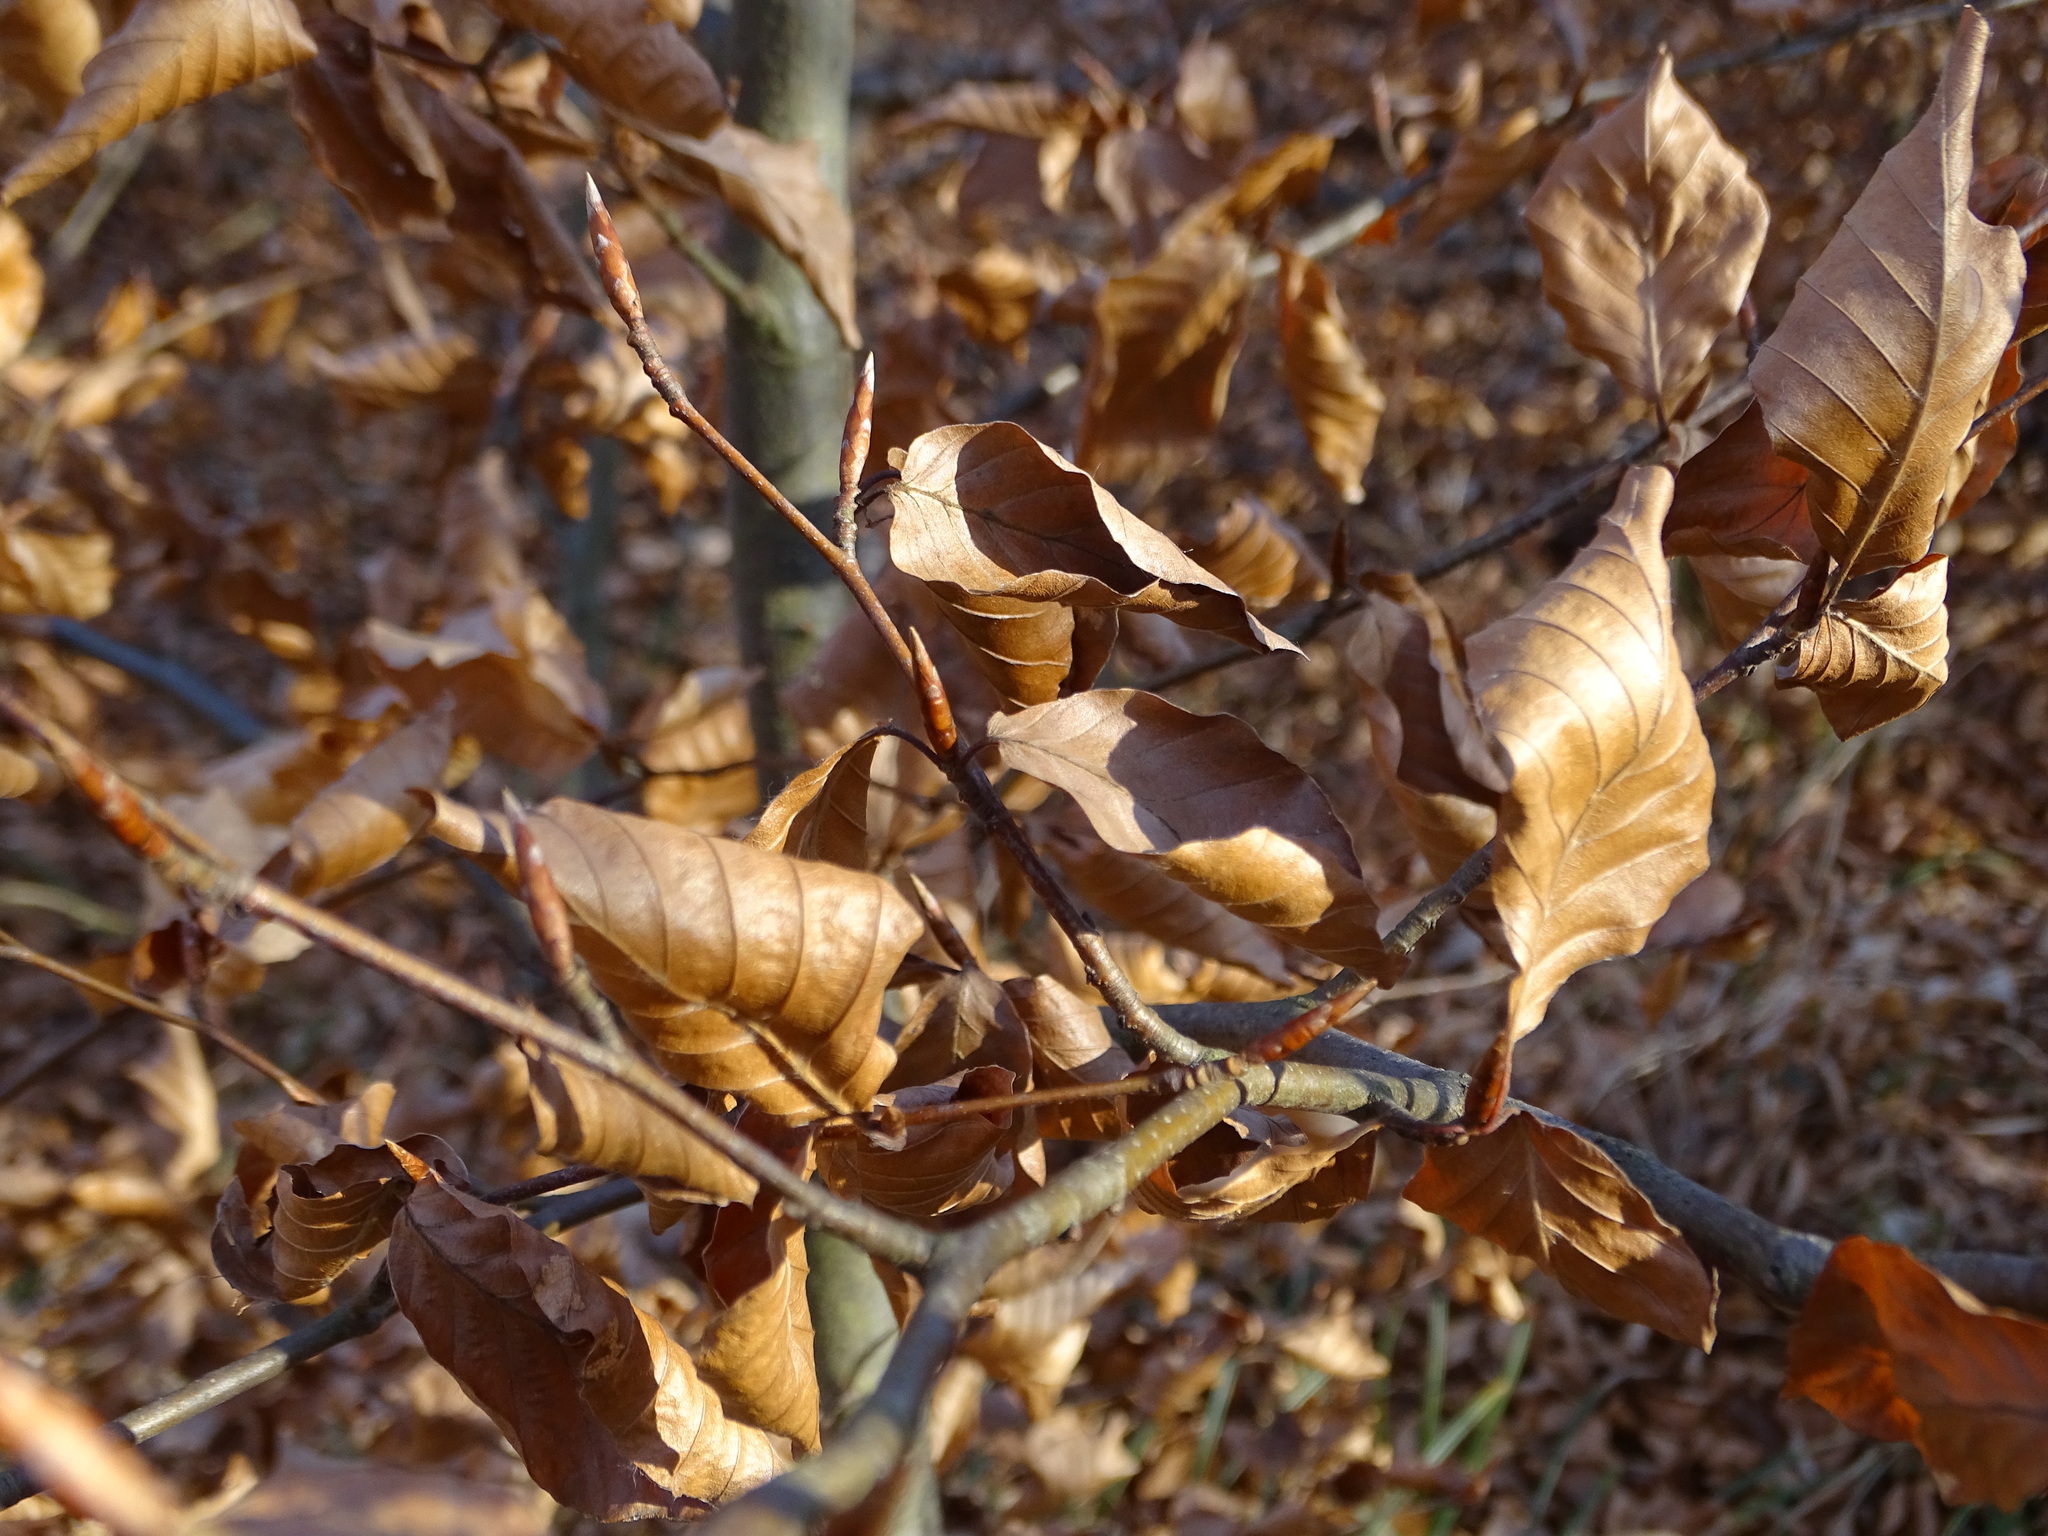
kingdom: Plantae
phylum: Tracheophyta
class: Magnoliopsida
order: Fagales
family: Fagaceae
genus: Fagus
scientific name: Fagus sylvatica
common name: Beech
